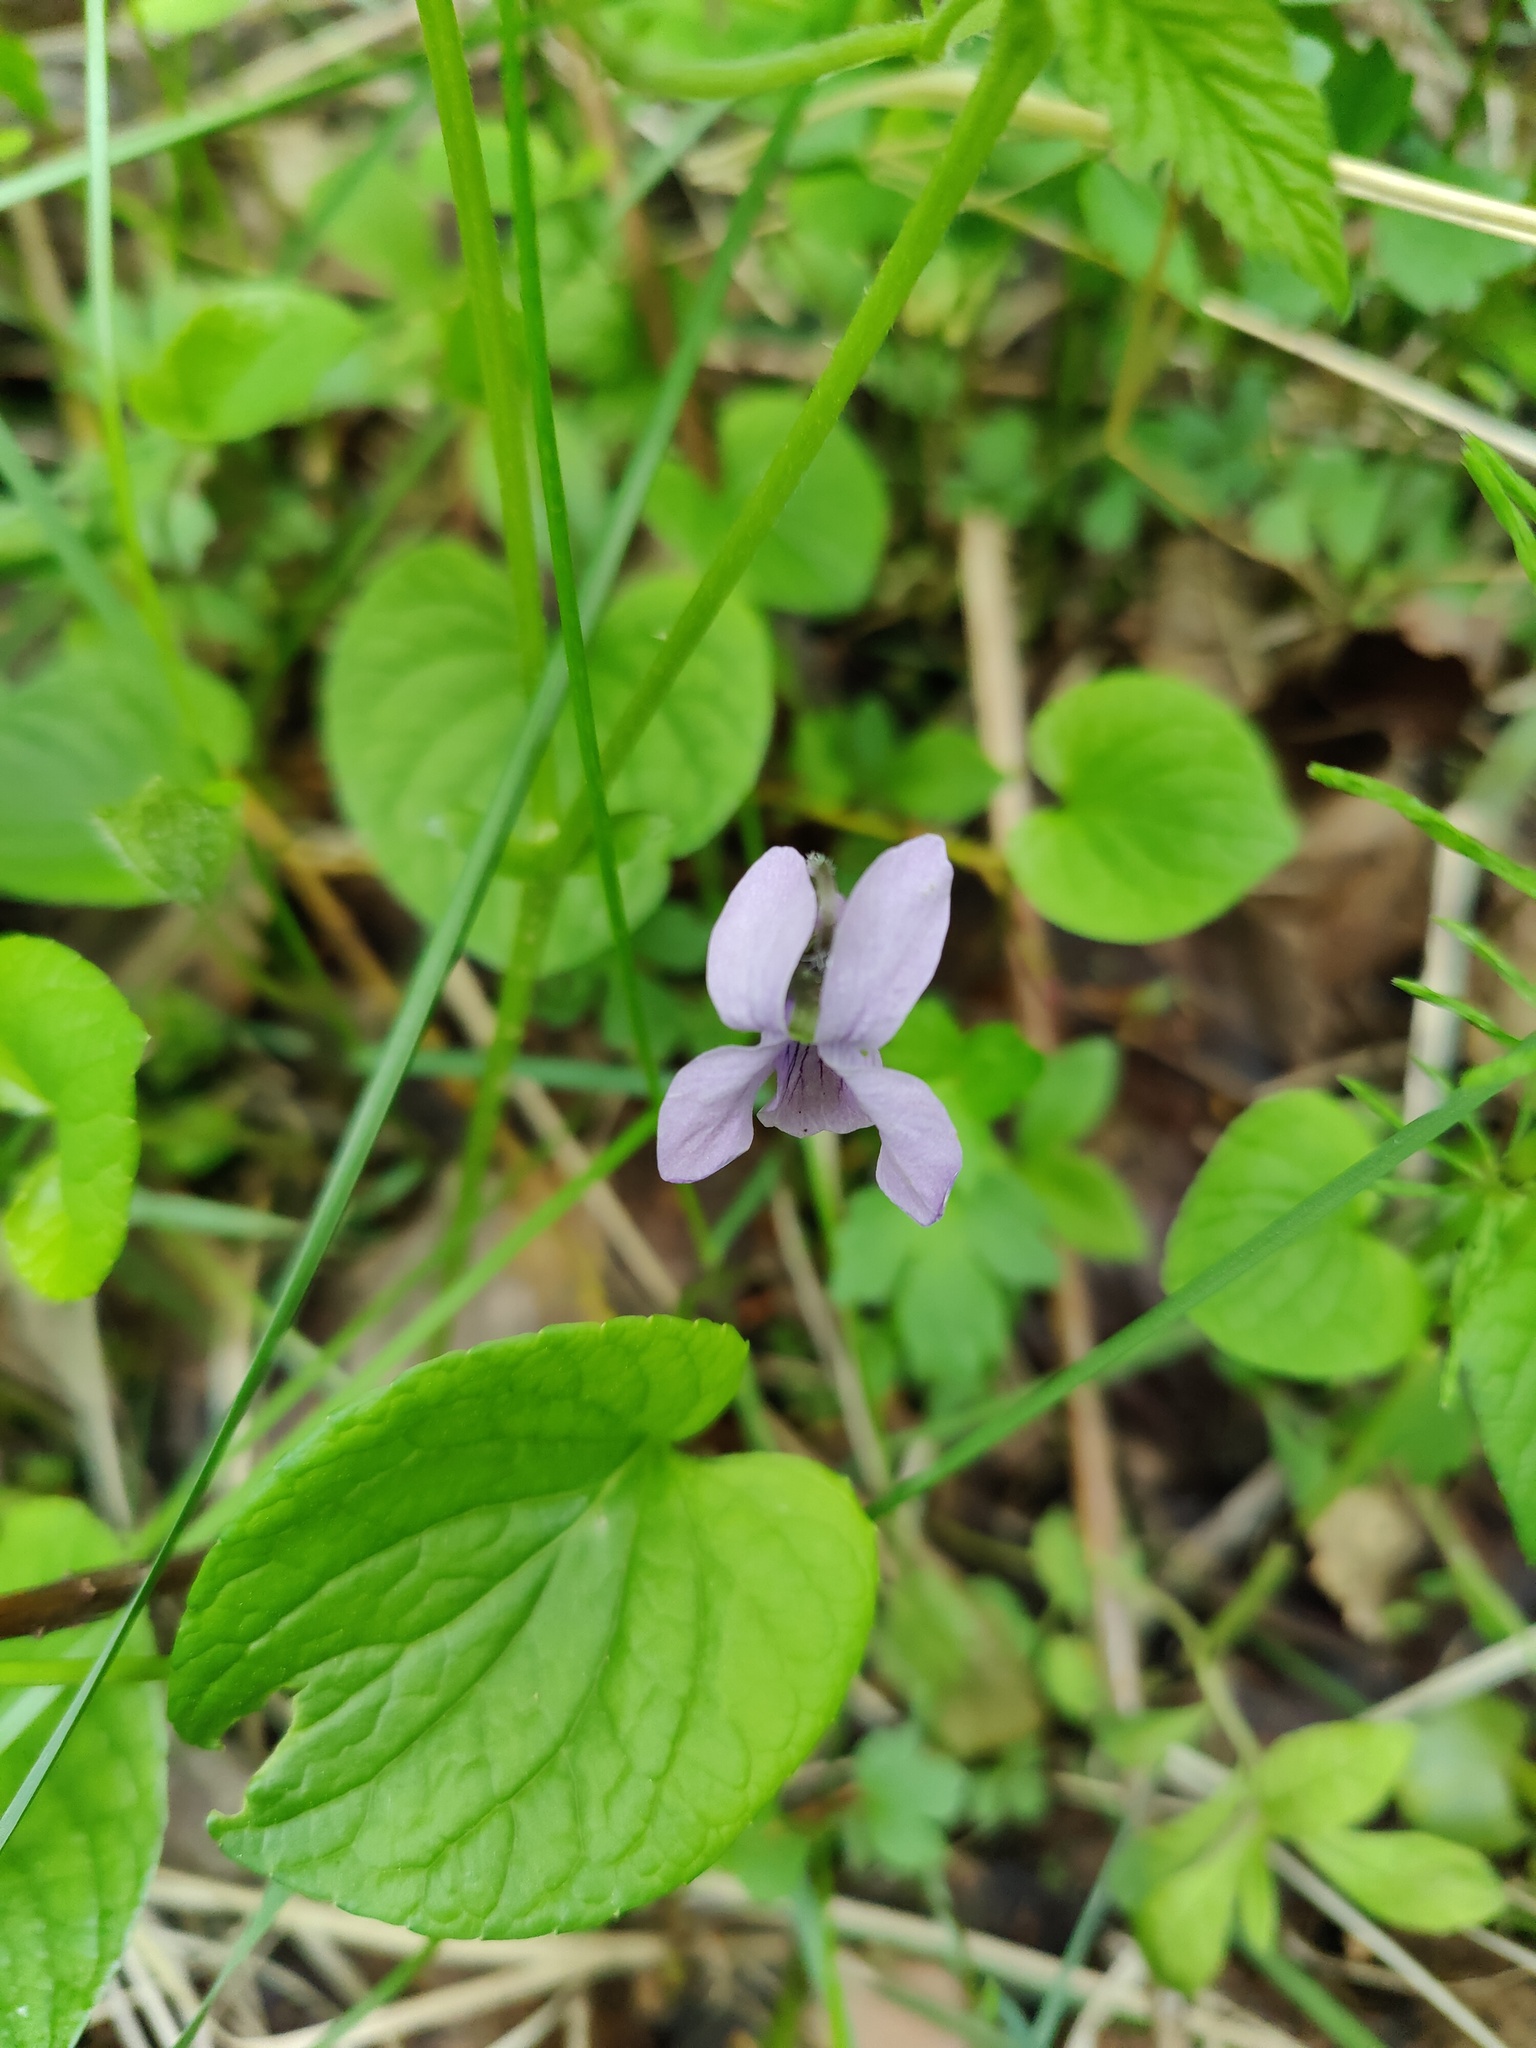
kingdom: Plantae
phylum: Tracheophyta
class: Magnoliopsida
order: Malpighiales
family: Violaceae
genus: Viola
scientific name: Viola epipsila
